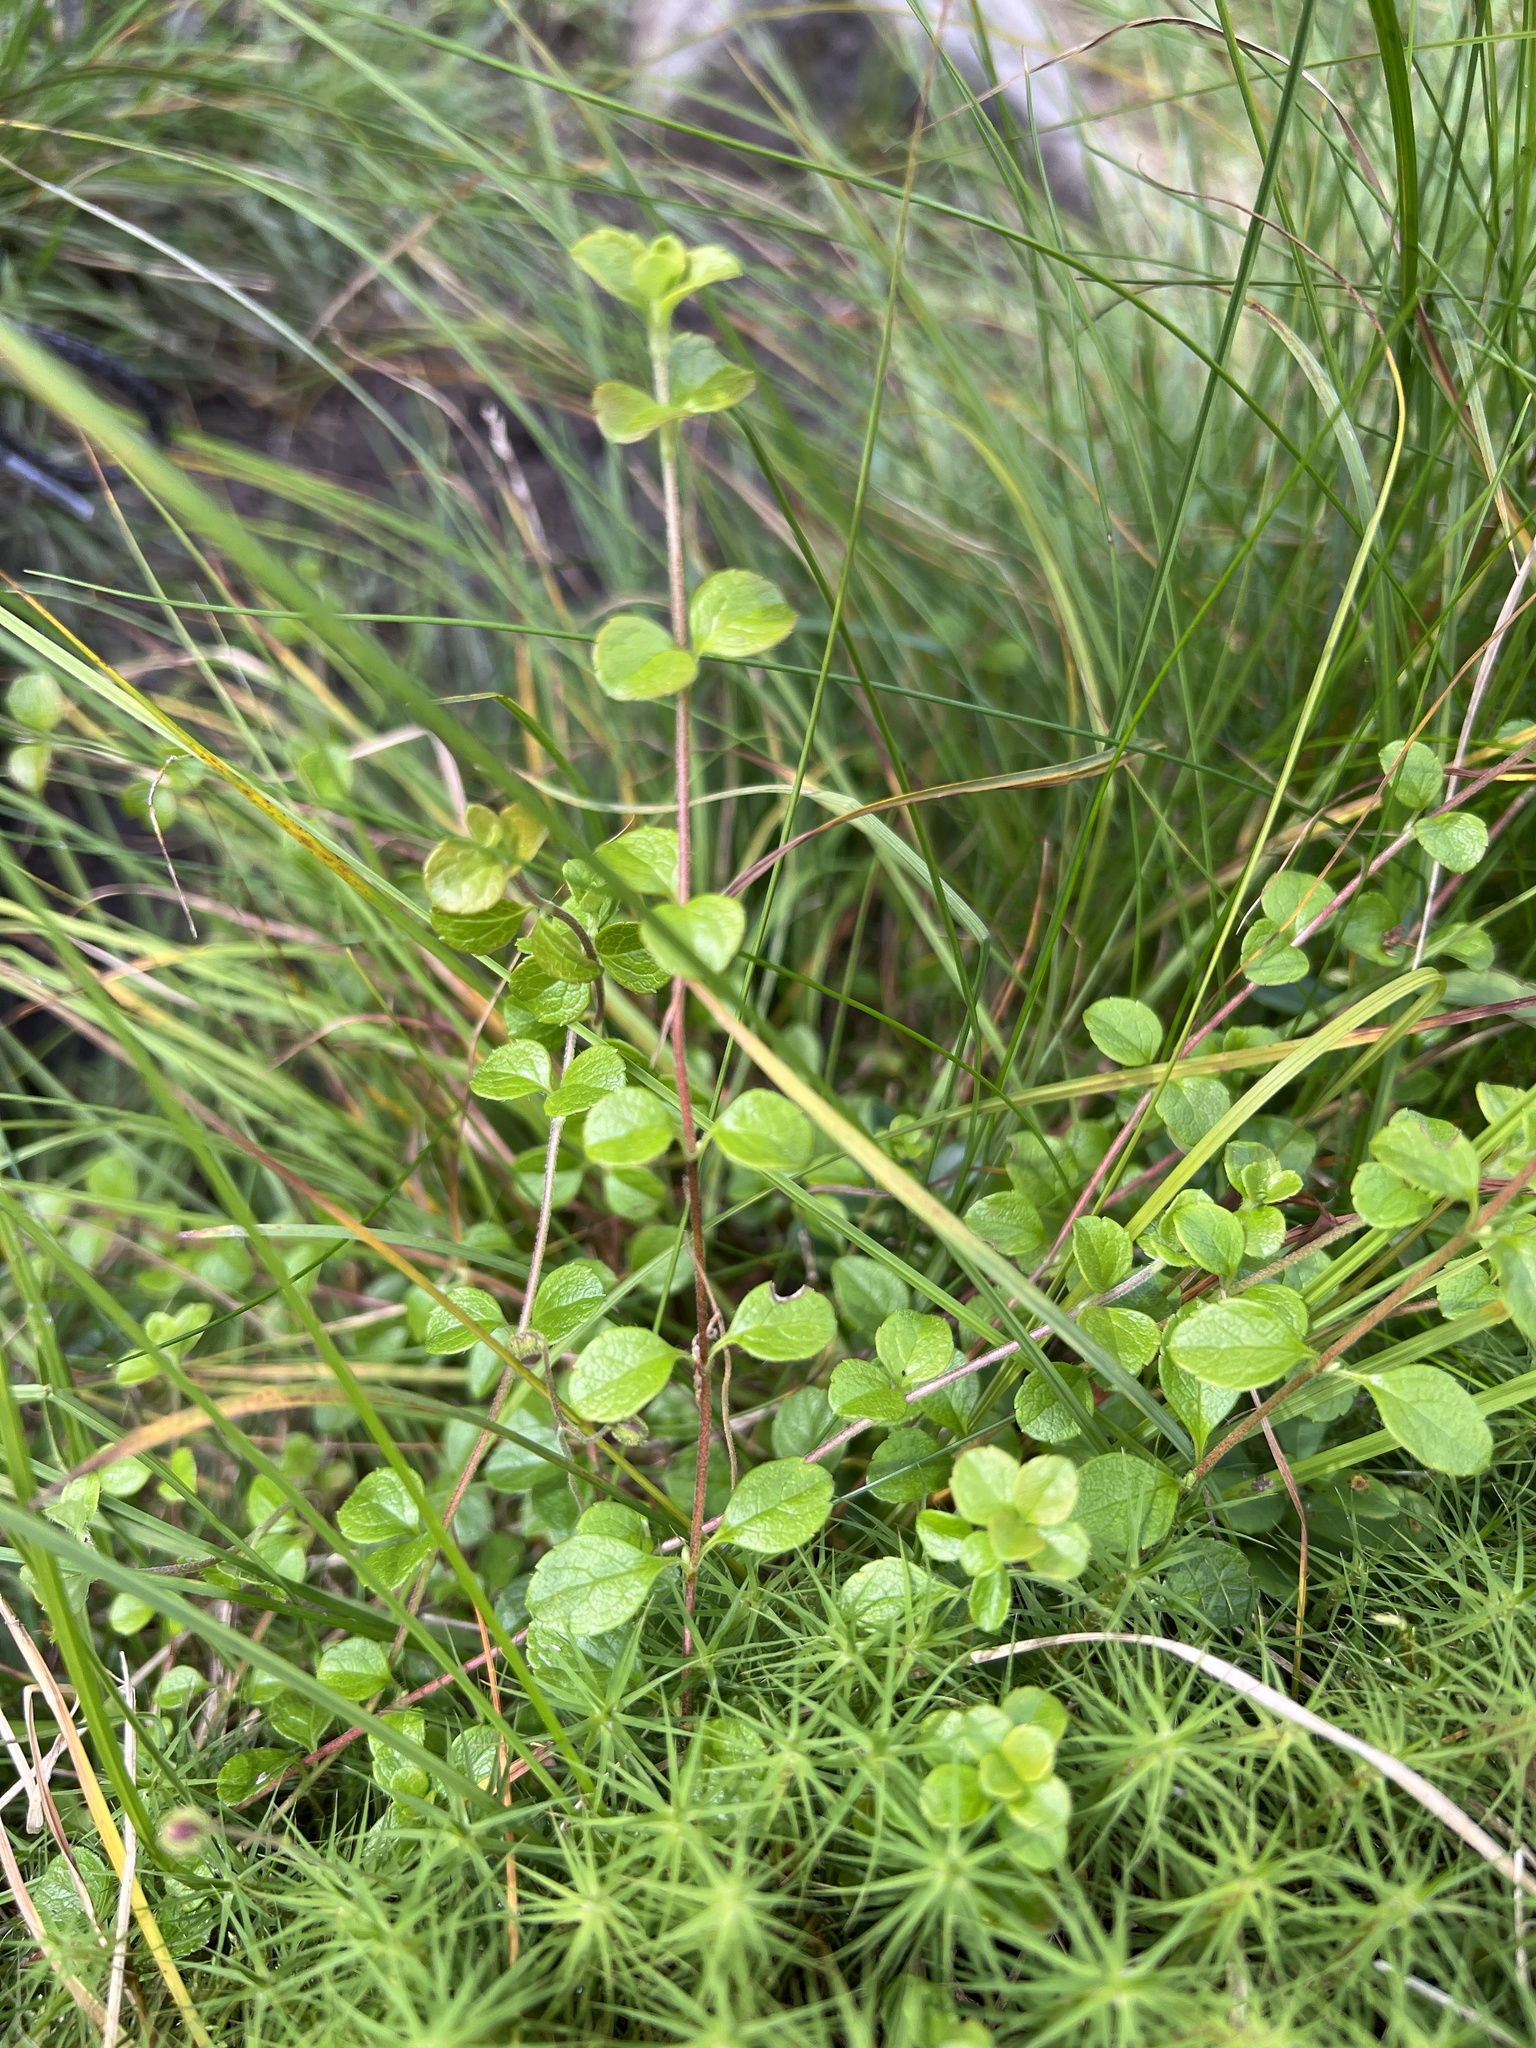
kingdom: Plantae
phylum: Tracheophyta
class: Magnoliopsida
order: Dipsacales
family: Caprifoliaceae
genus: Linnaea
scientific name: Linnaea borealis
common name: Twinflower
